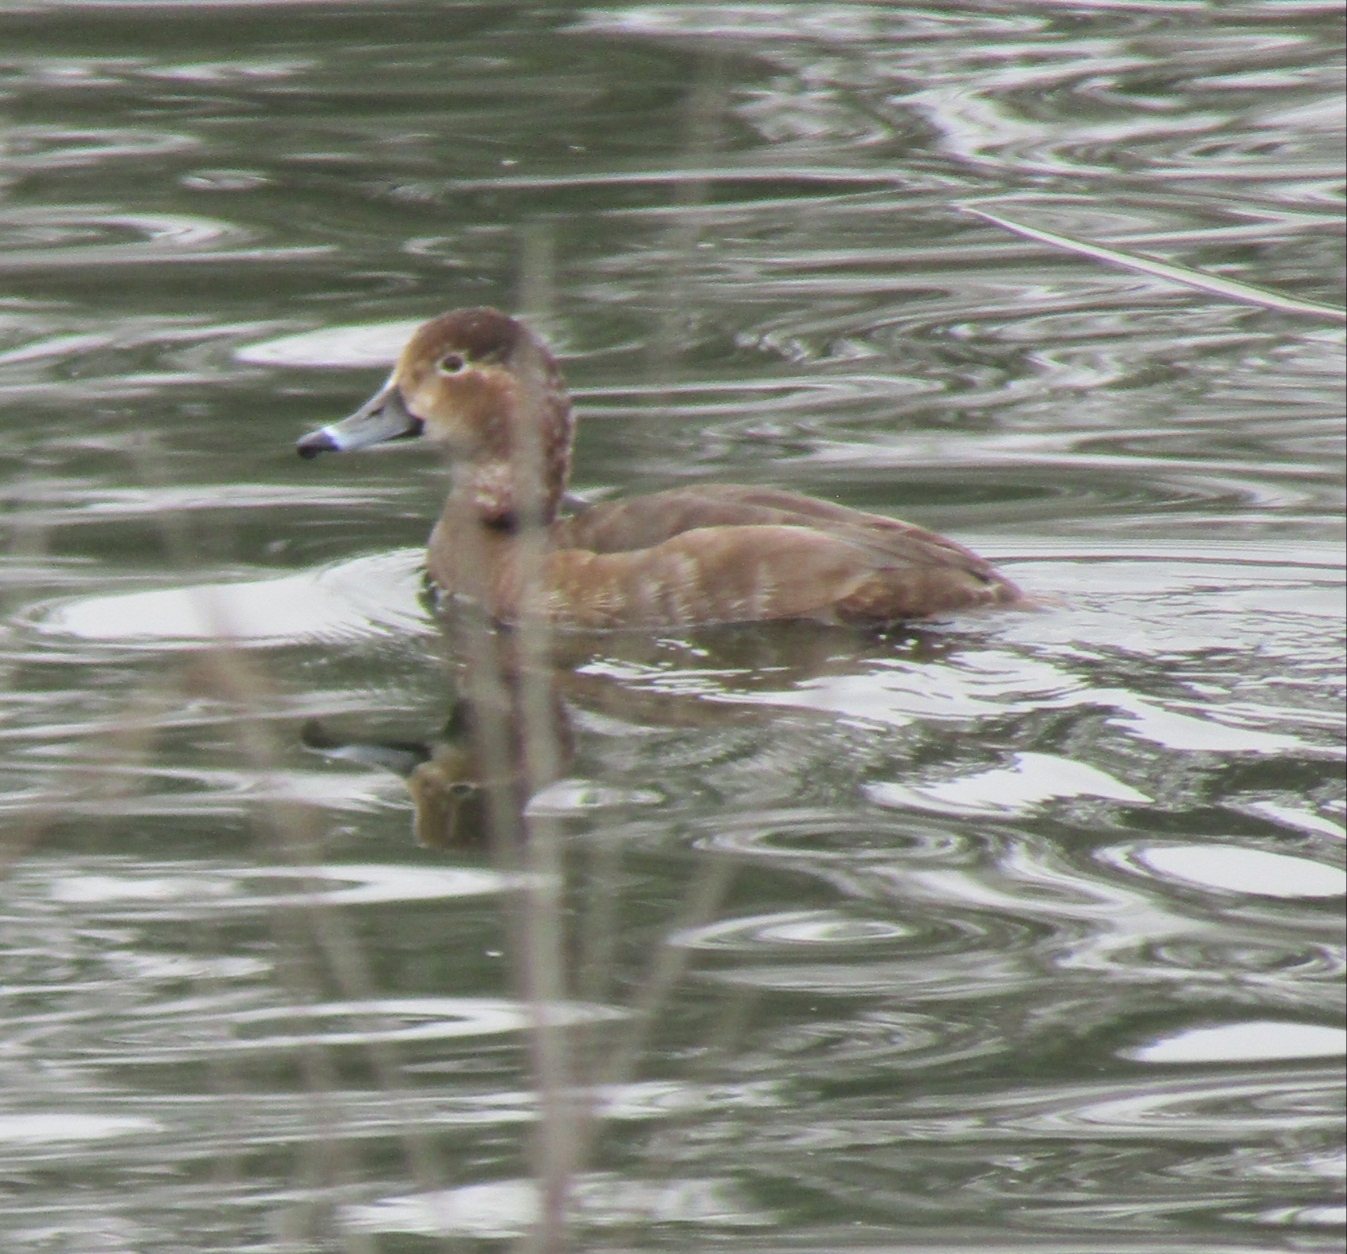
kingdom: Animalia
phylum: Chordata
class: Aves
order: Anseriformes
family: Anatidae
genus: Aythya
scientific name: Aythya americana
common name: Redhead
